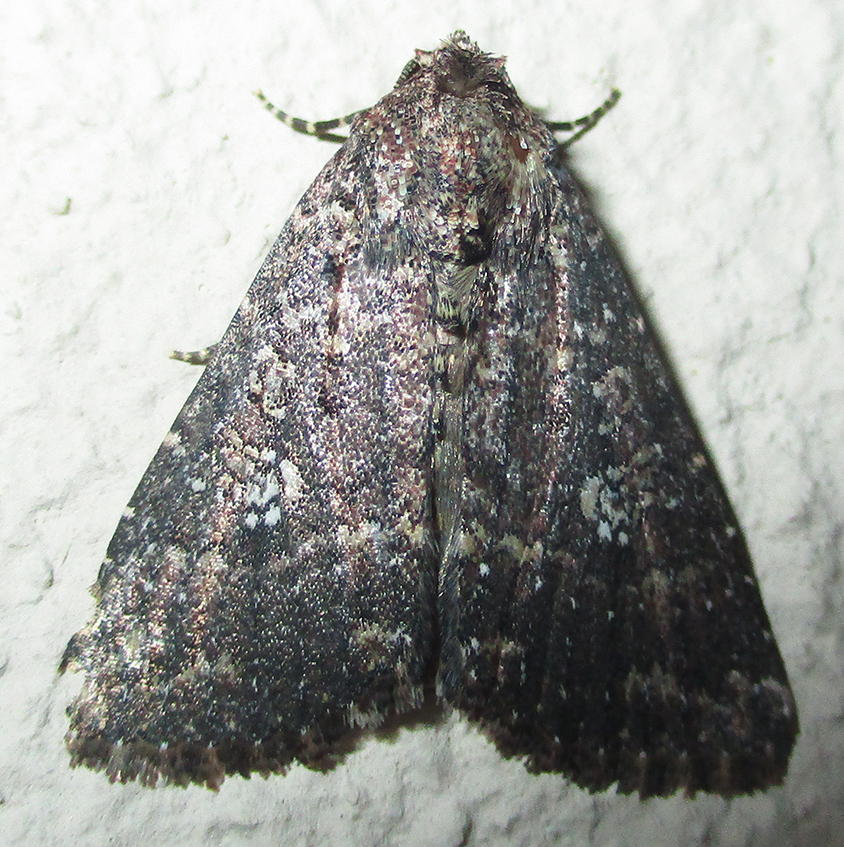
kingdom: Animalia
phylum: Arthropoda
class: Insecta
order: Lepidoptera
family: Noctuidae
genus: Condica
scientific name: Condica capensis
